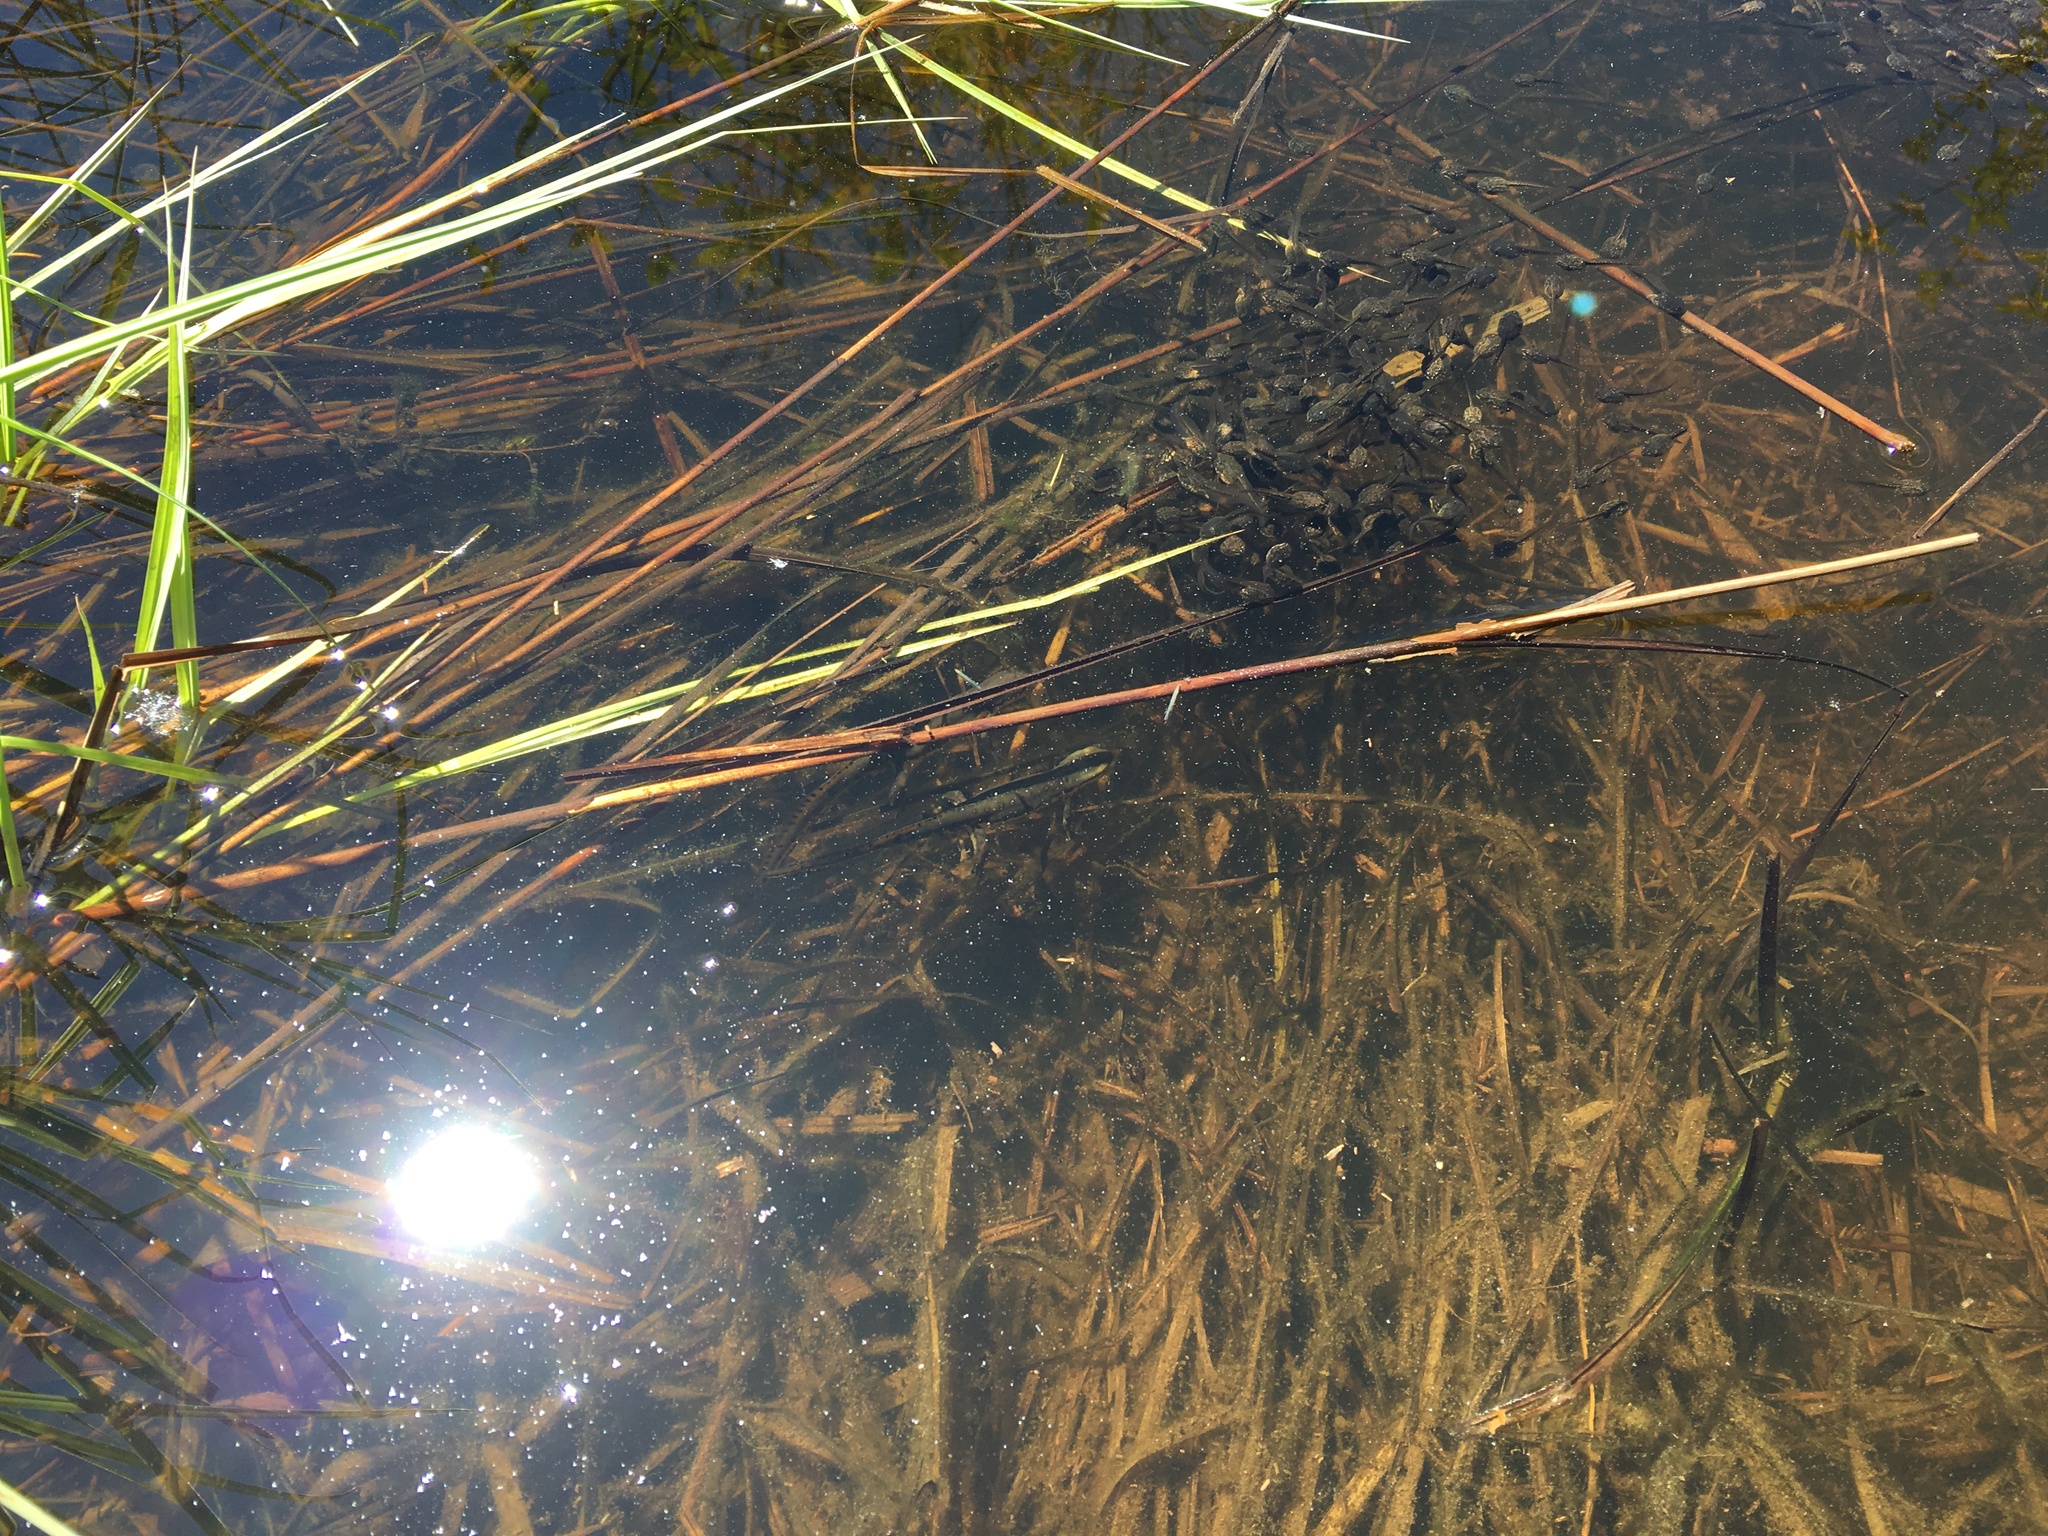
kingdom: Animalia
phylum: Chordata
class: Amphibia
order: Anura
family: Bufonidae
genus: Anaxyrus
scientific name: Anaxyrus americanus
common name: American toad
